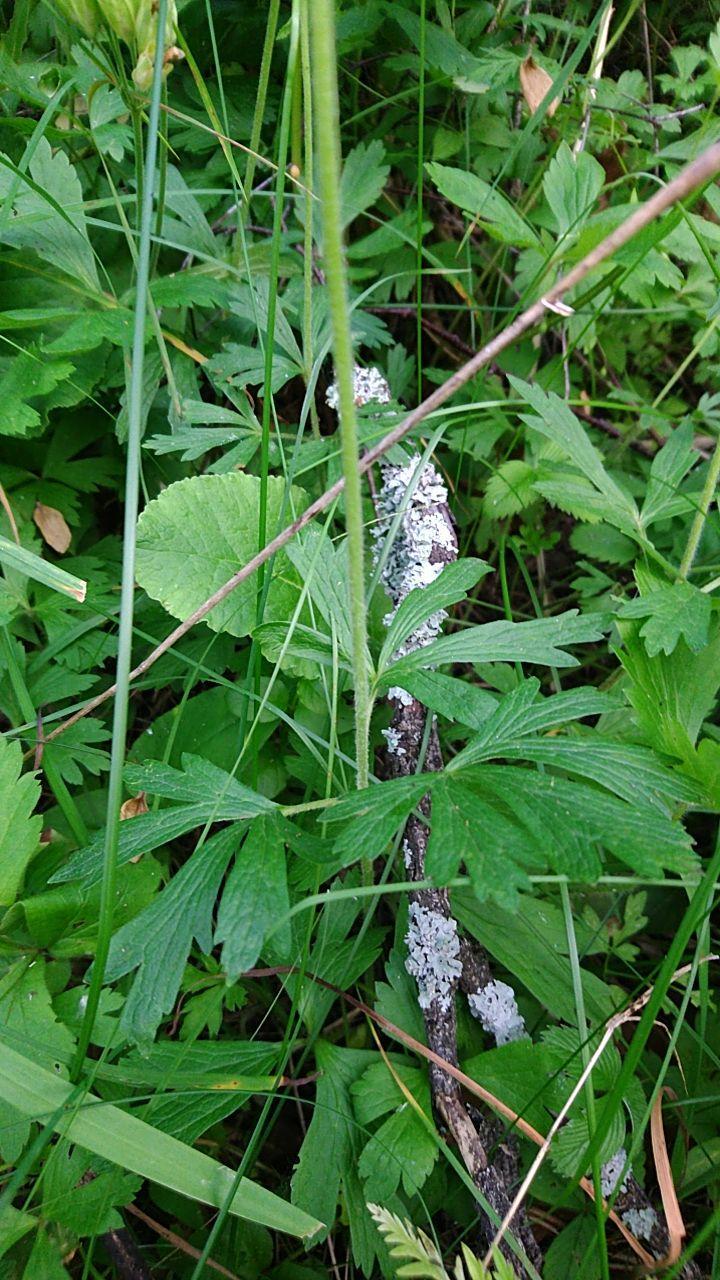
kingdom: Plantae
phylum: Tracheophyta
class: Magnoliopsida
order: Ranunculales
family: Ranunculaceae
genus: Anemone
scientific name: Anemone sylvestris
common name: Snowdrop anemone
